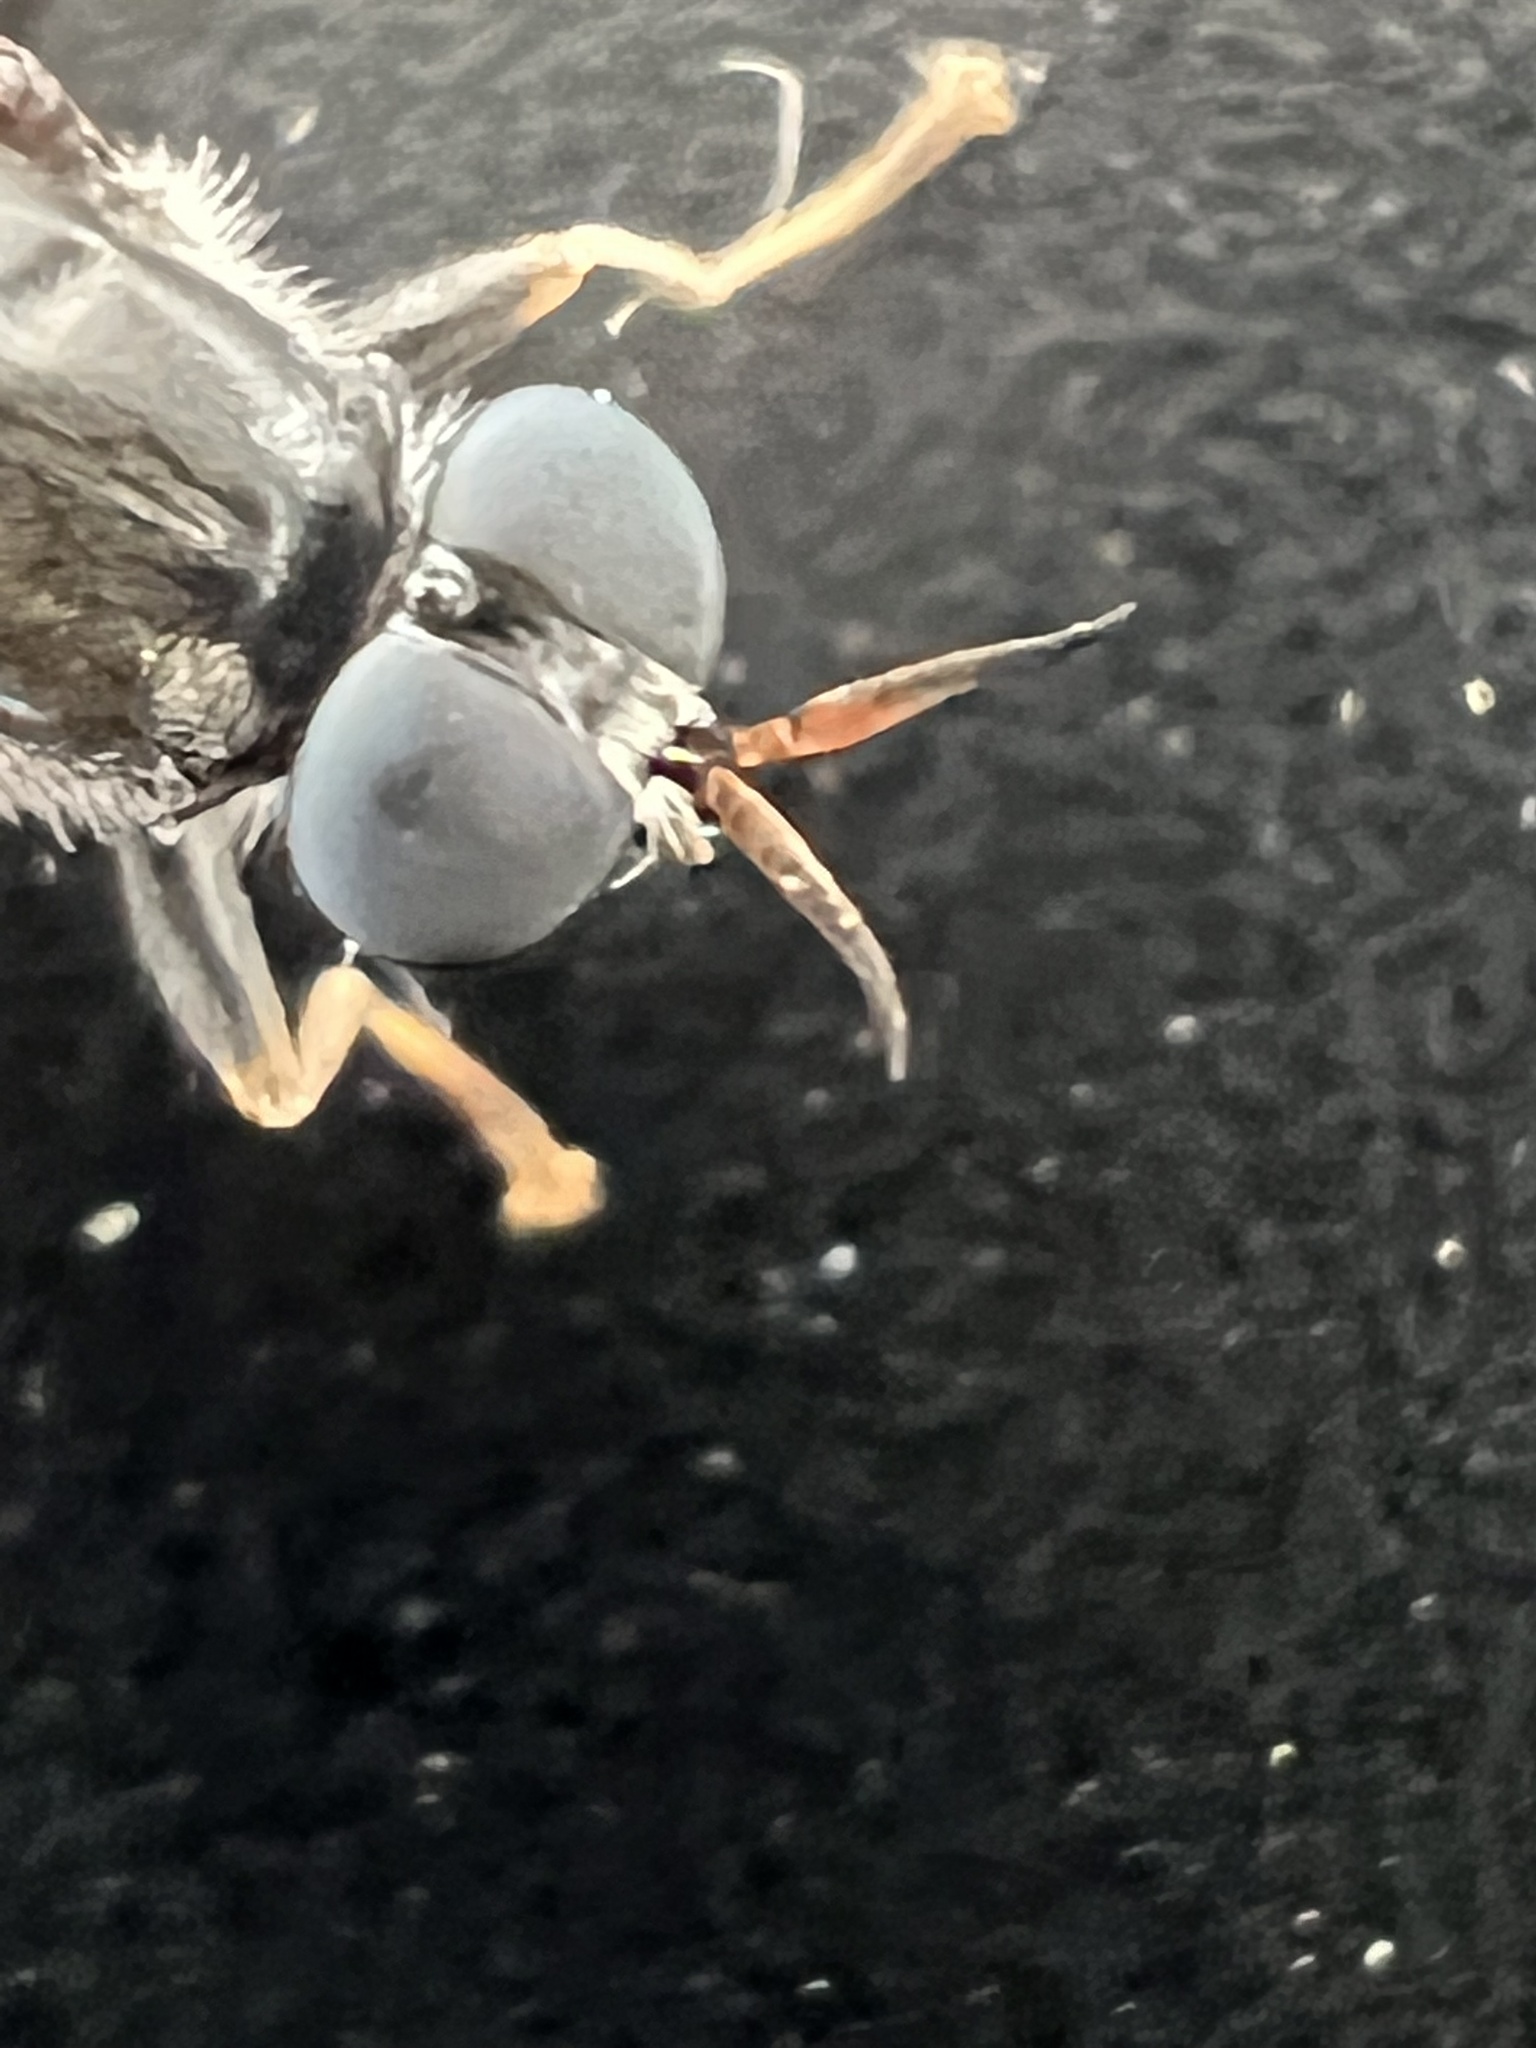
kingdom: Animalia
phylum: Arthropoda
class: Insecta
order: Diptera
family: Stratiomyidae
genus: Exaireta
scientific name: Exaireta spinigera
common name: Blue soldier fly
